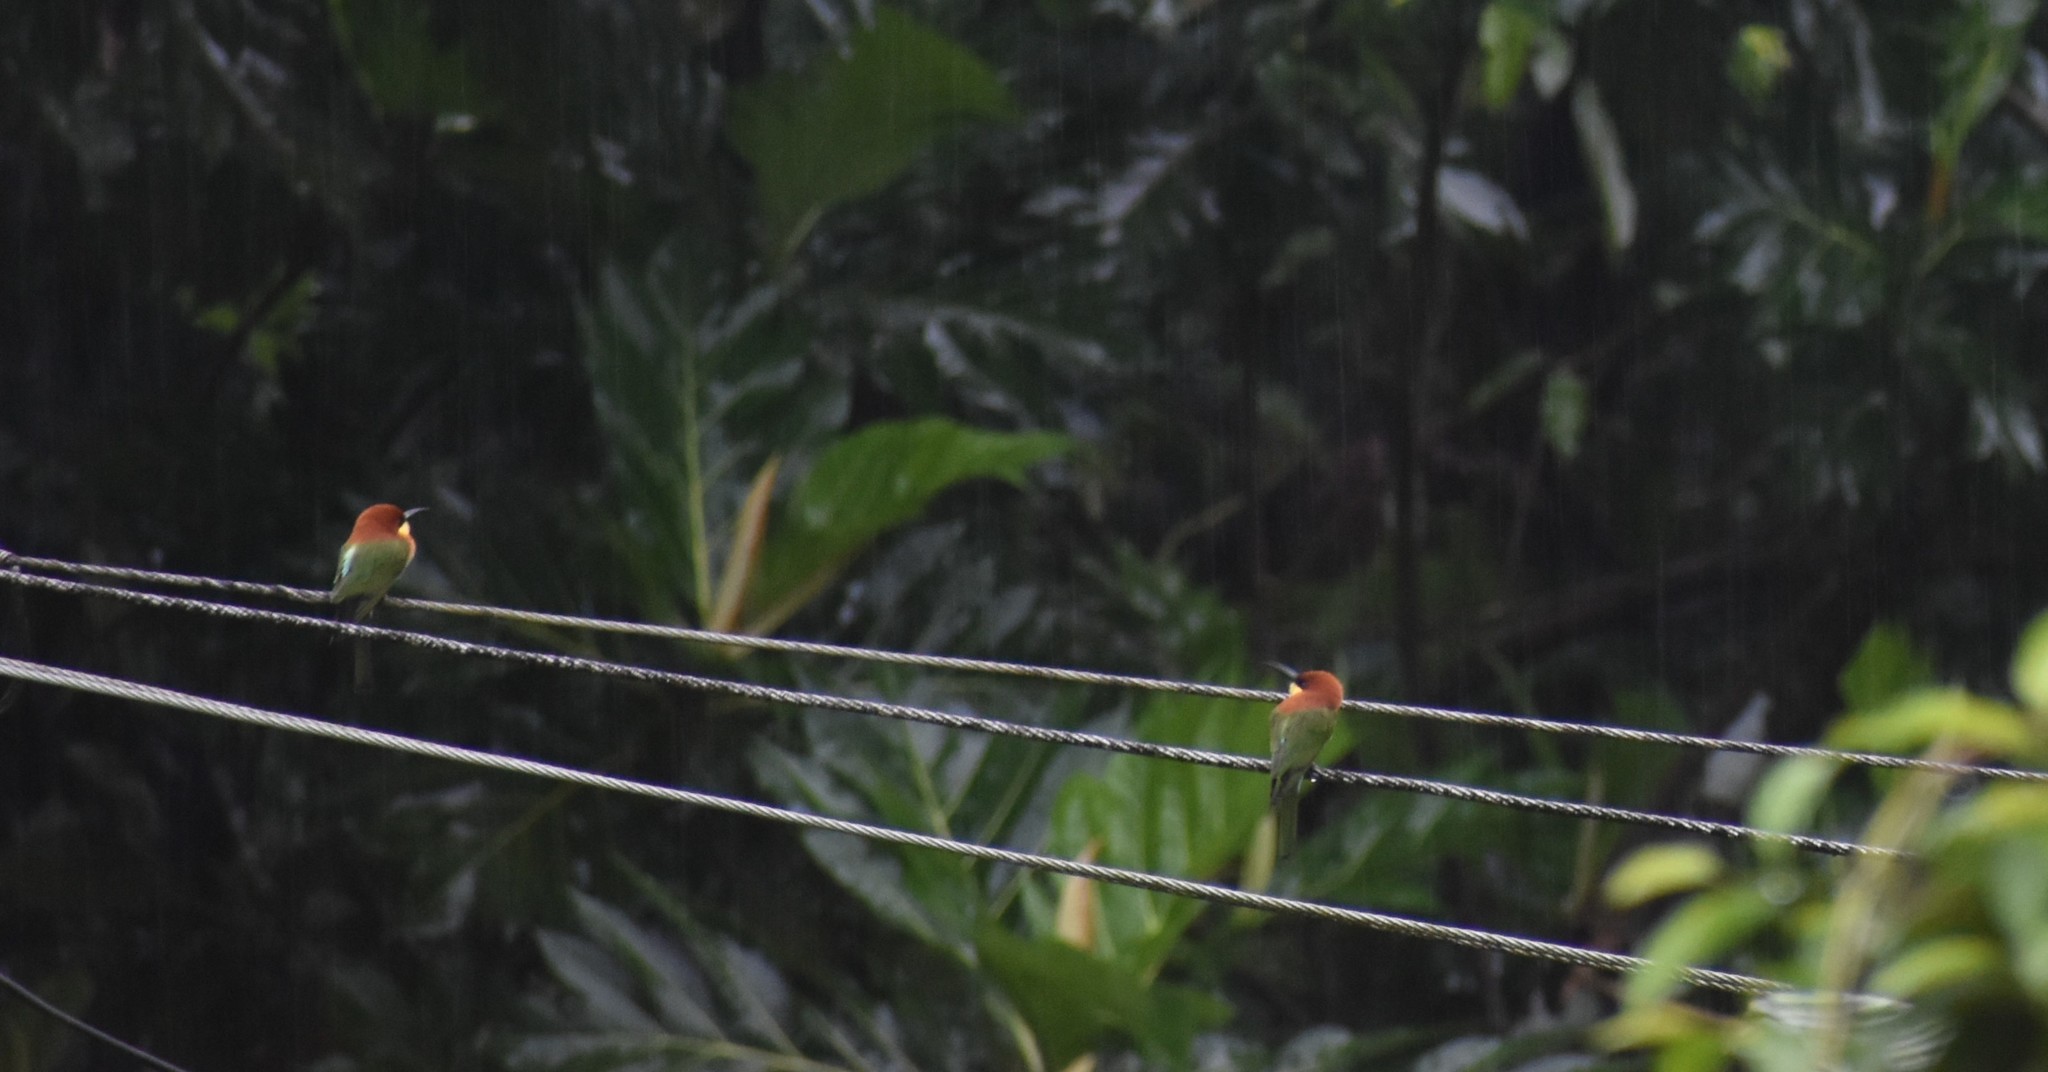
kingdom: Animalia
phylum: Chordata
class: Aves
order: Coraciiformes
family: Meropidae
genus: Merops
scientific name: Merops leschenaulti
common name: Chestnut-headed bee-eater
